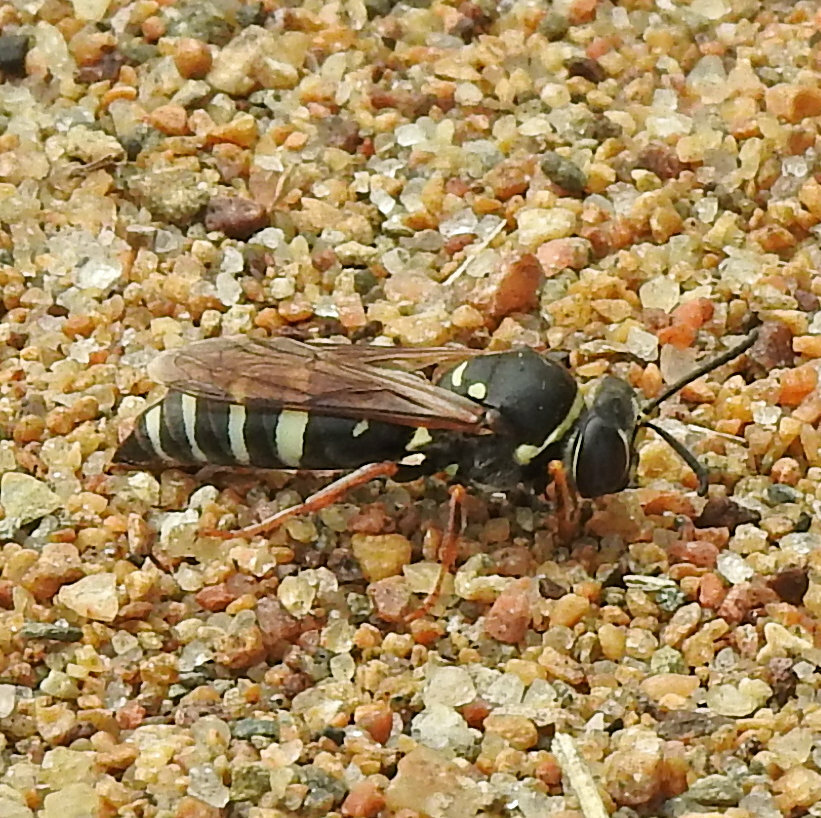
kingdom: Animalia
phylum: Arthropoda
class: Insecta
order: Hymenoptera
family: Crabronidae
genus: Bicyrtes
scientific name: Bicyrtes ventralis
